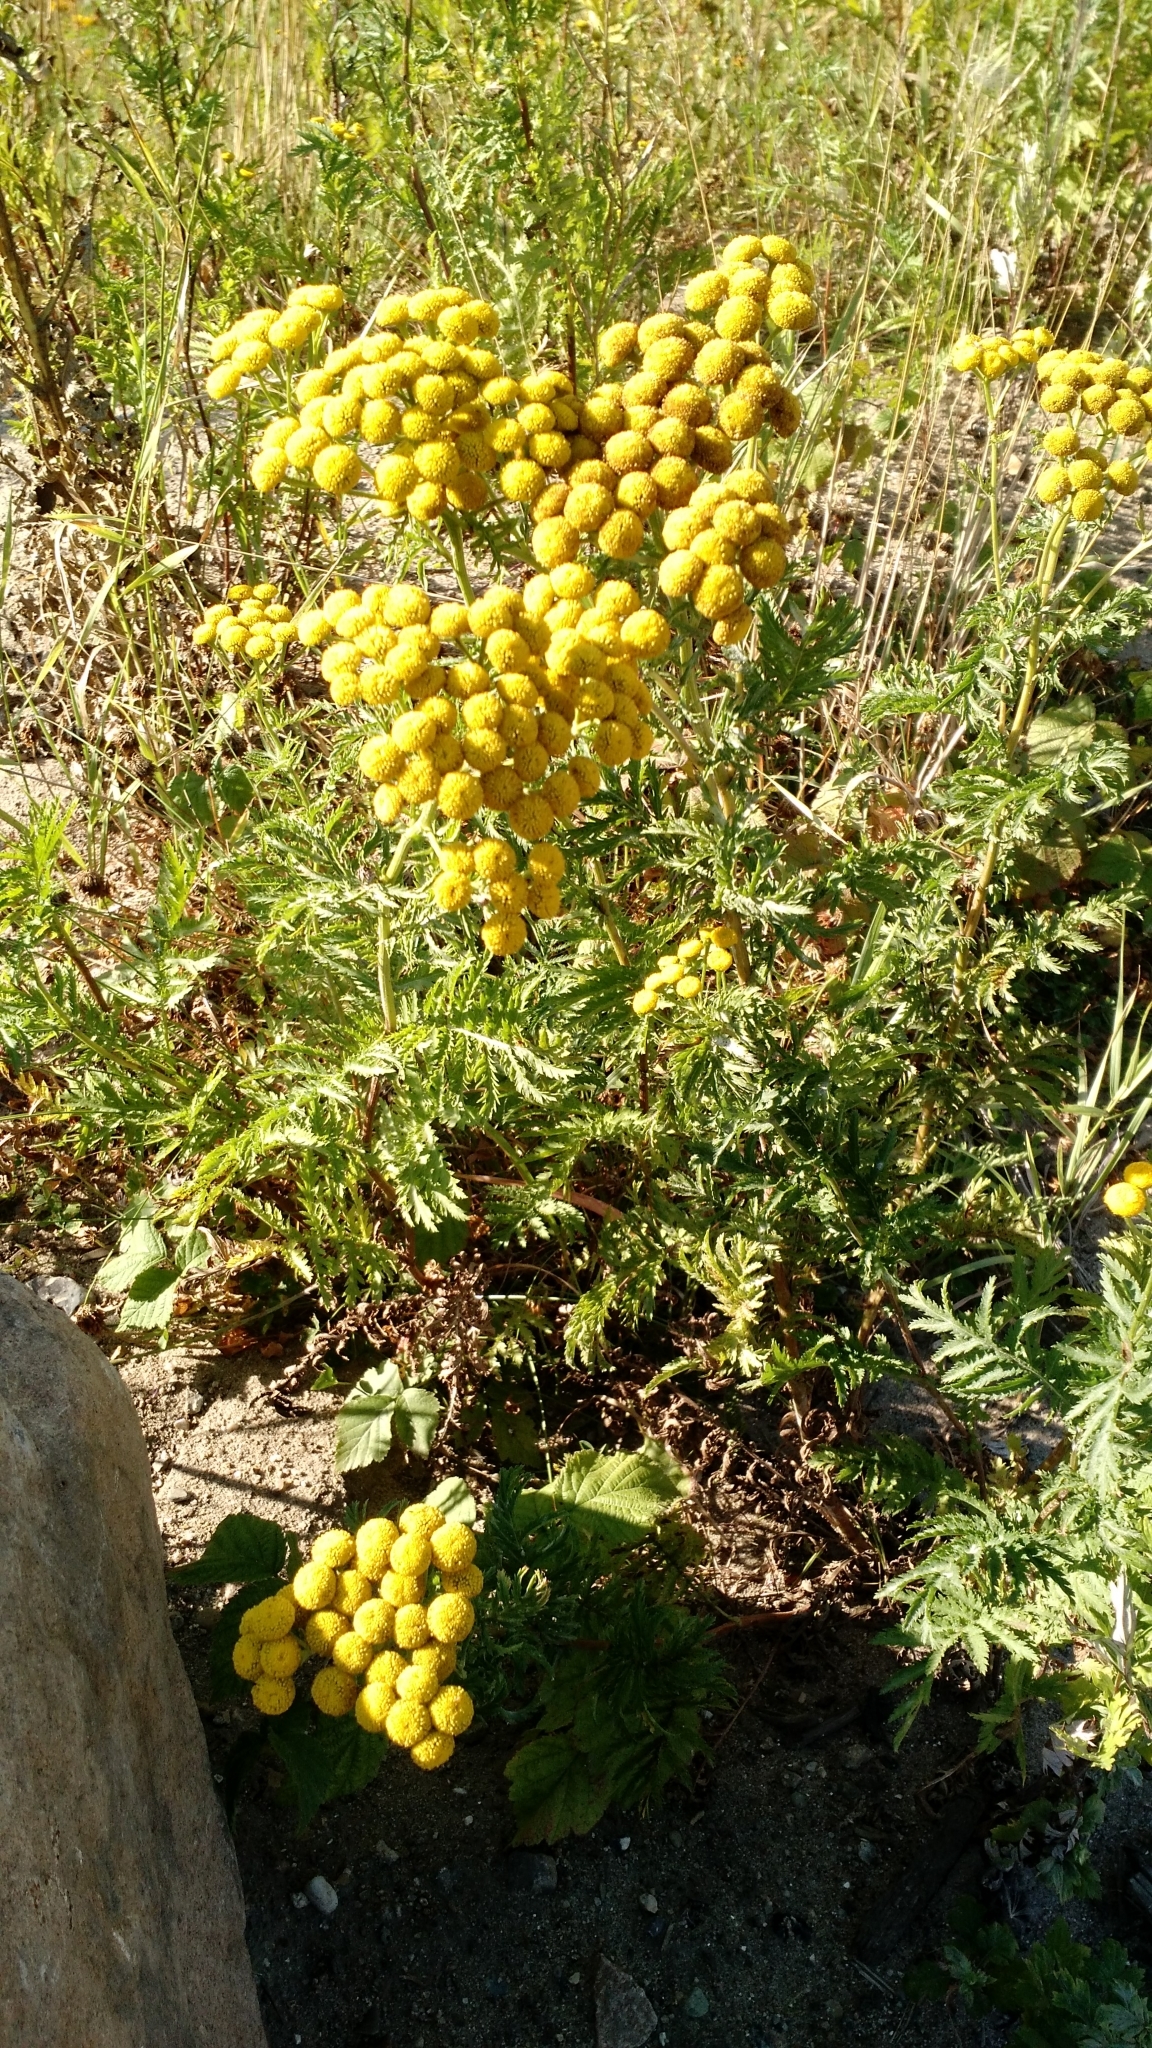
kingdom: Plantae
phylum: Tracheophyta
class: Magnoliopsida
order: Asterales
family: Asteraceae
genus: Tanacetum
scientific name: Tanacetum vulgare
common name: Common tansy
